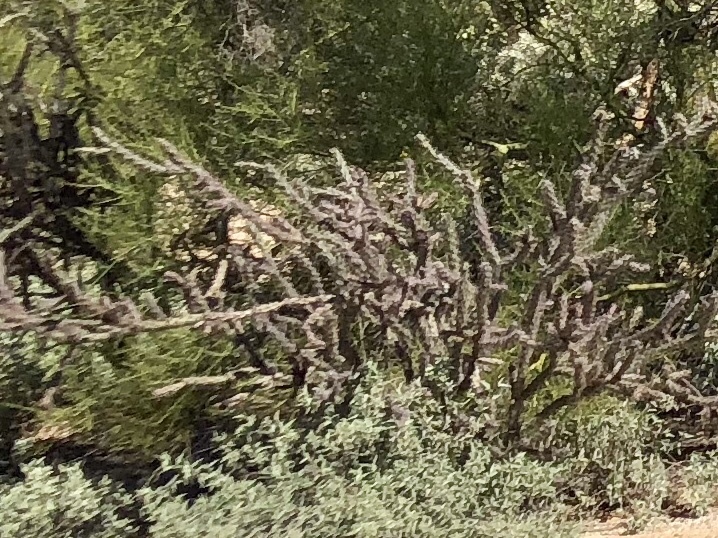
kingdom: Plantae
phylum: Tracheophyta
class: Magnoliopsida
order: Caryophyllales
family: Cactaceae
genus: Cylindropuntia
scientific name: Cylindropuntia thurberi
